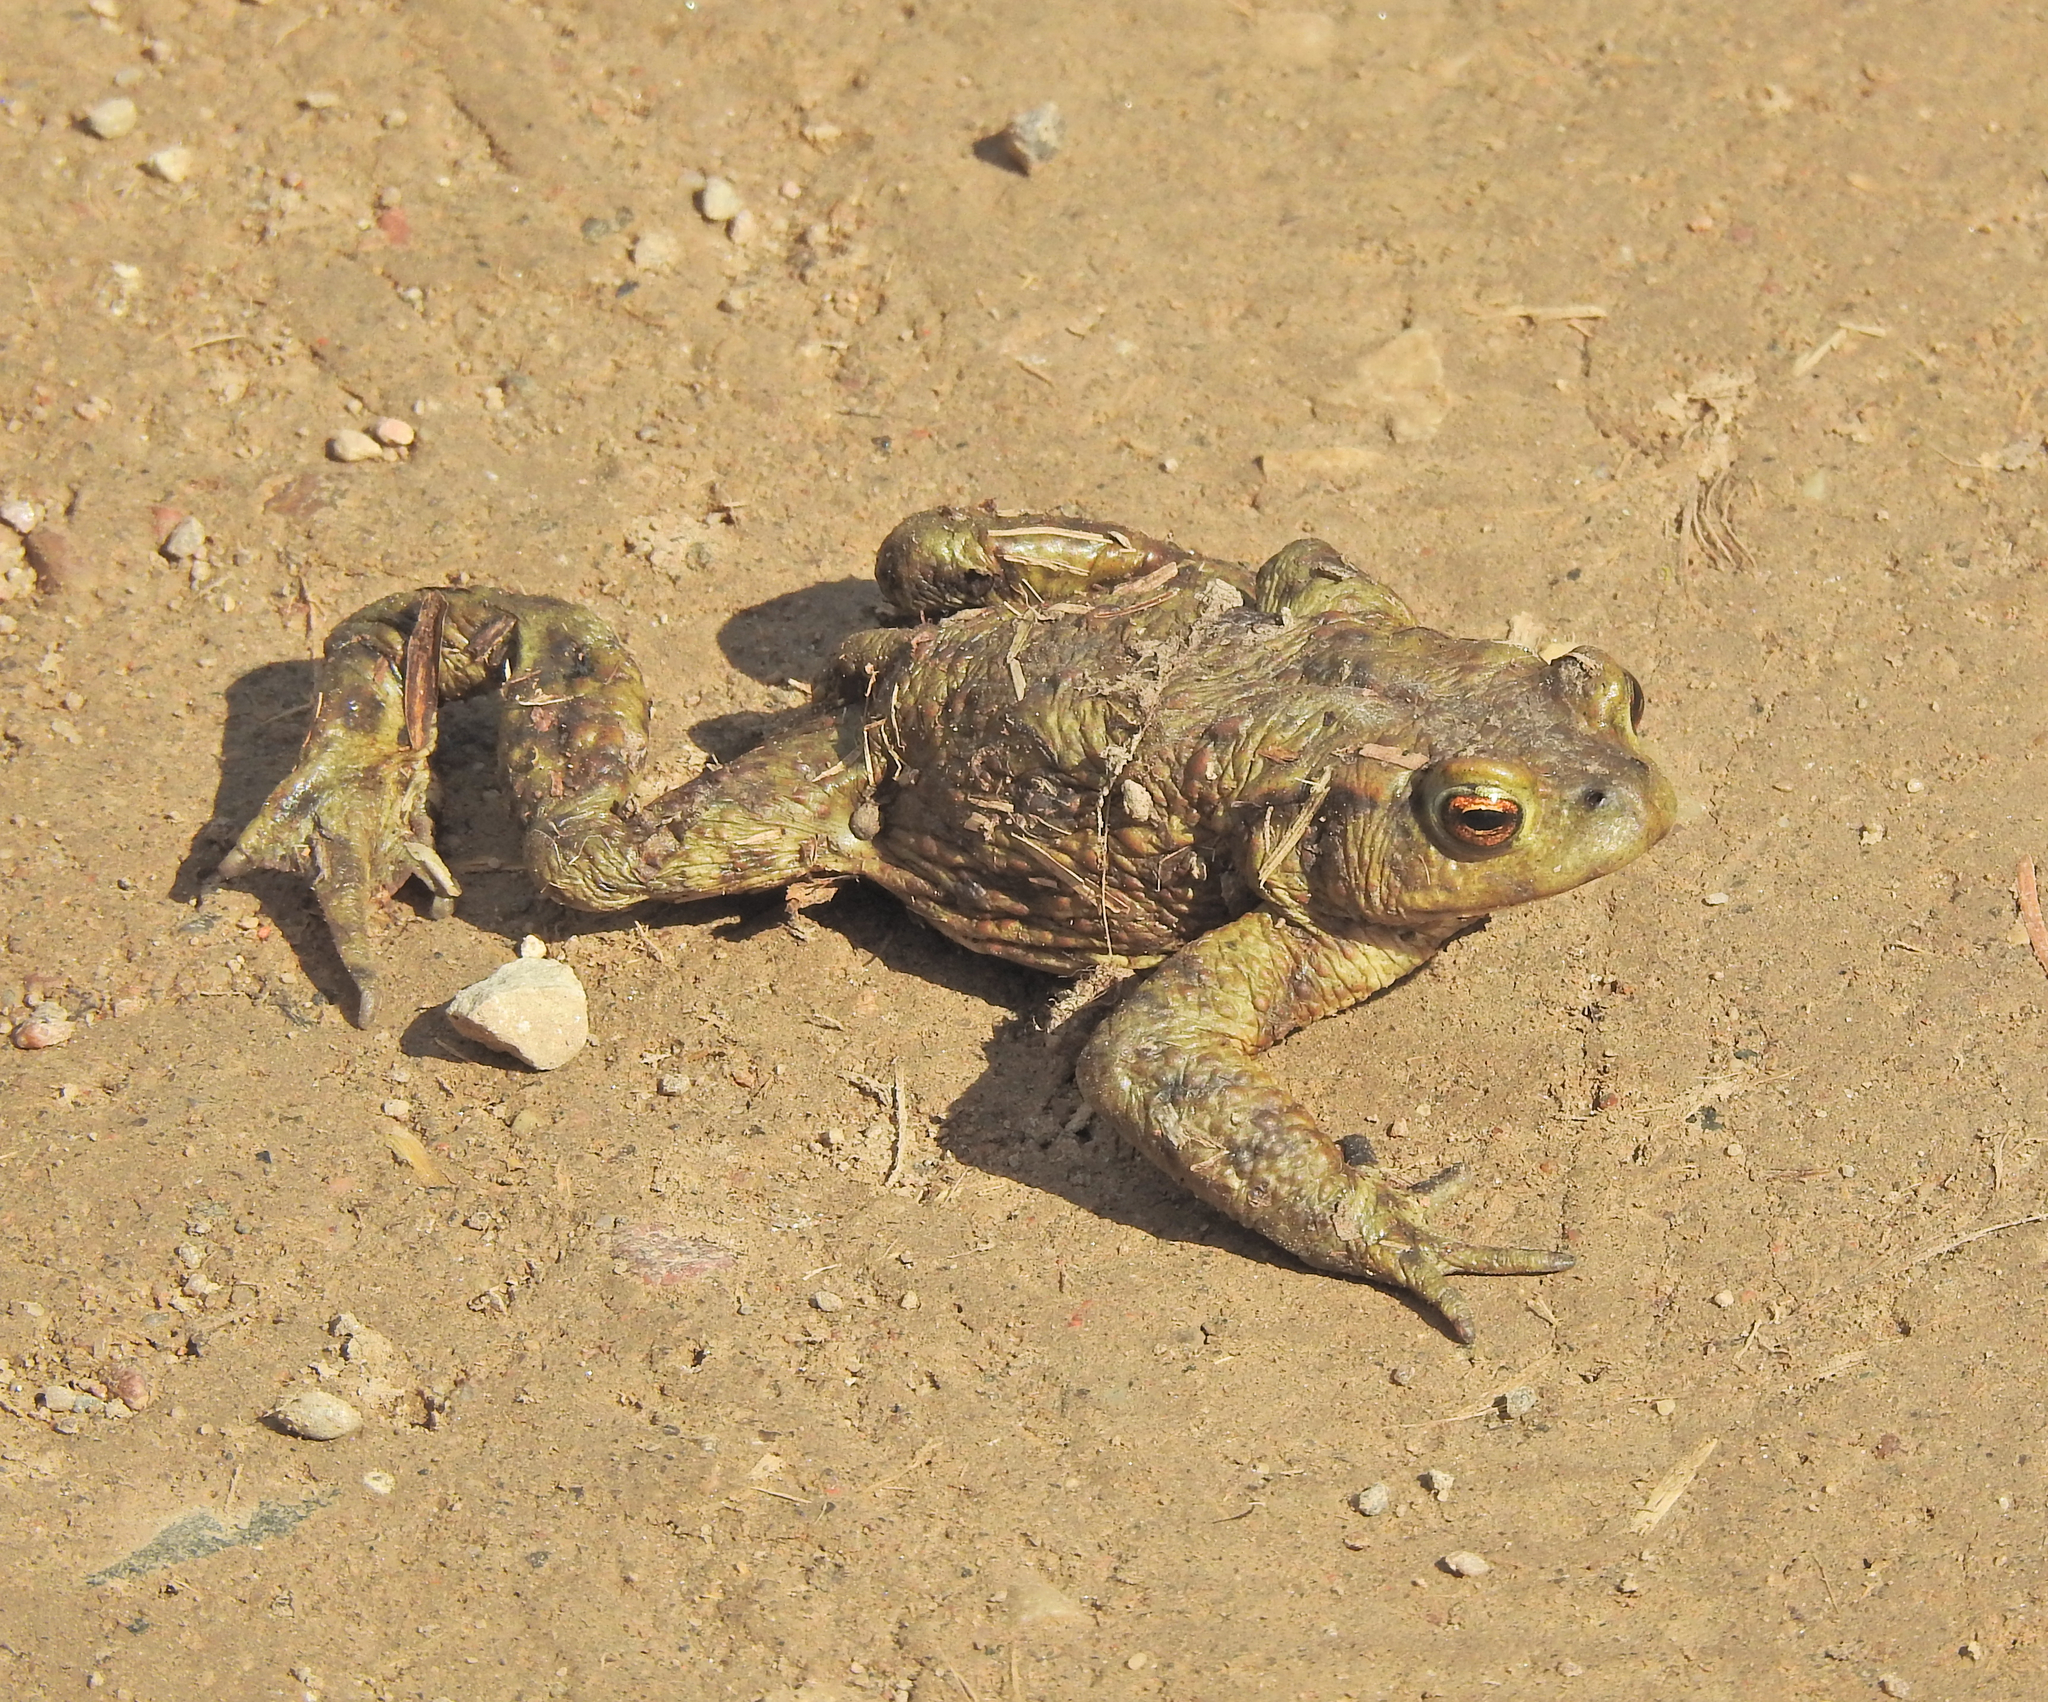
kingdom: Animalia
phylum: Chordata
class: Amphibia
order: Anura
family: Bufonidae
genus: Bufo
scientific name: Bufo bufo
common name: Common toad
